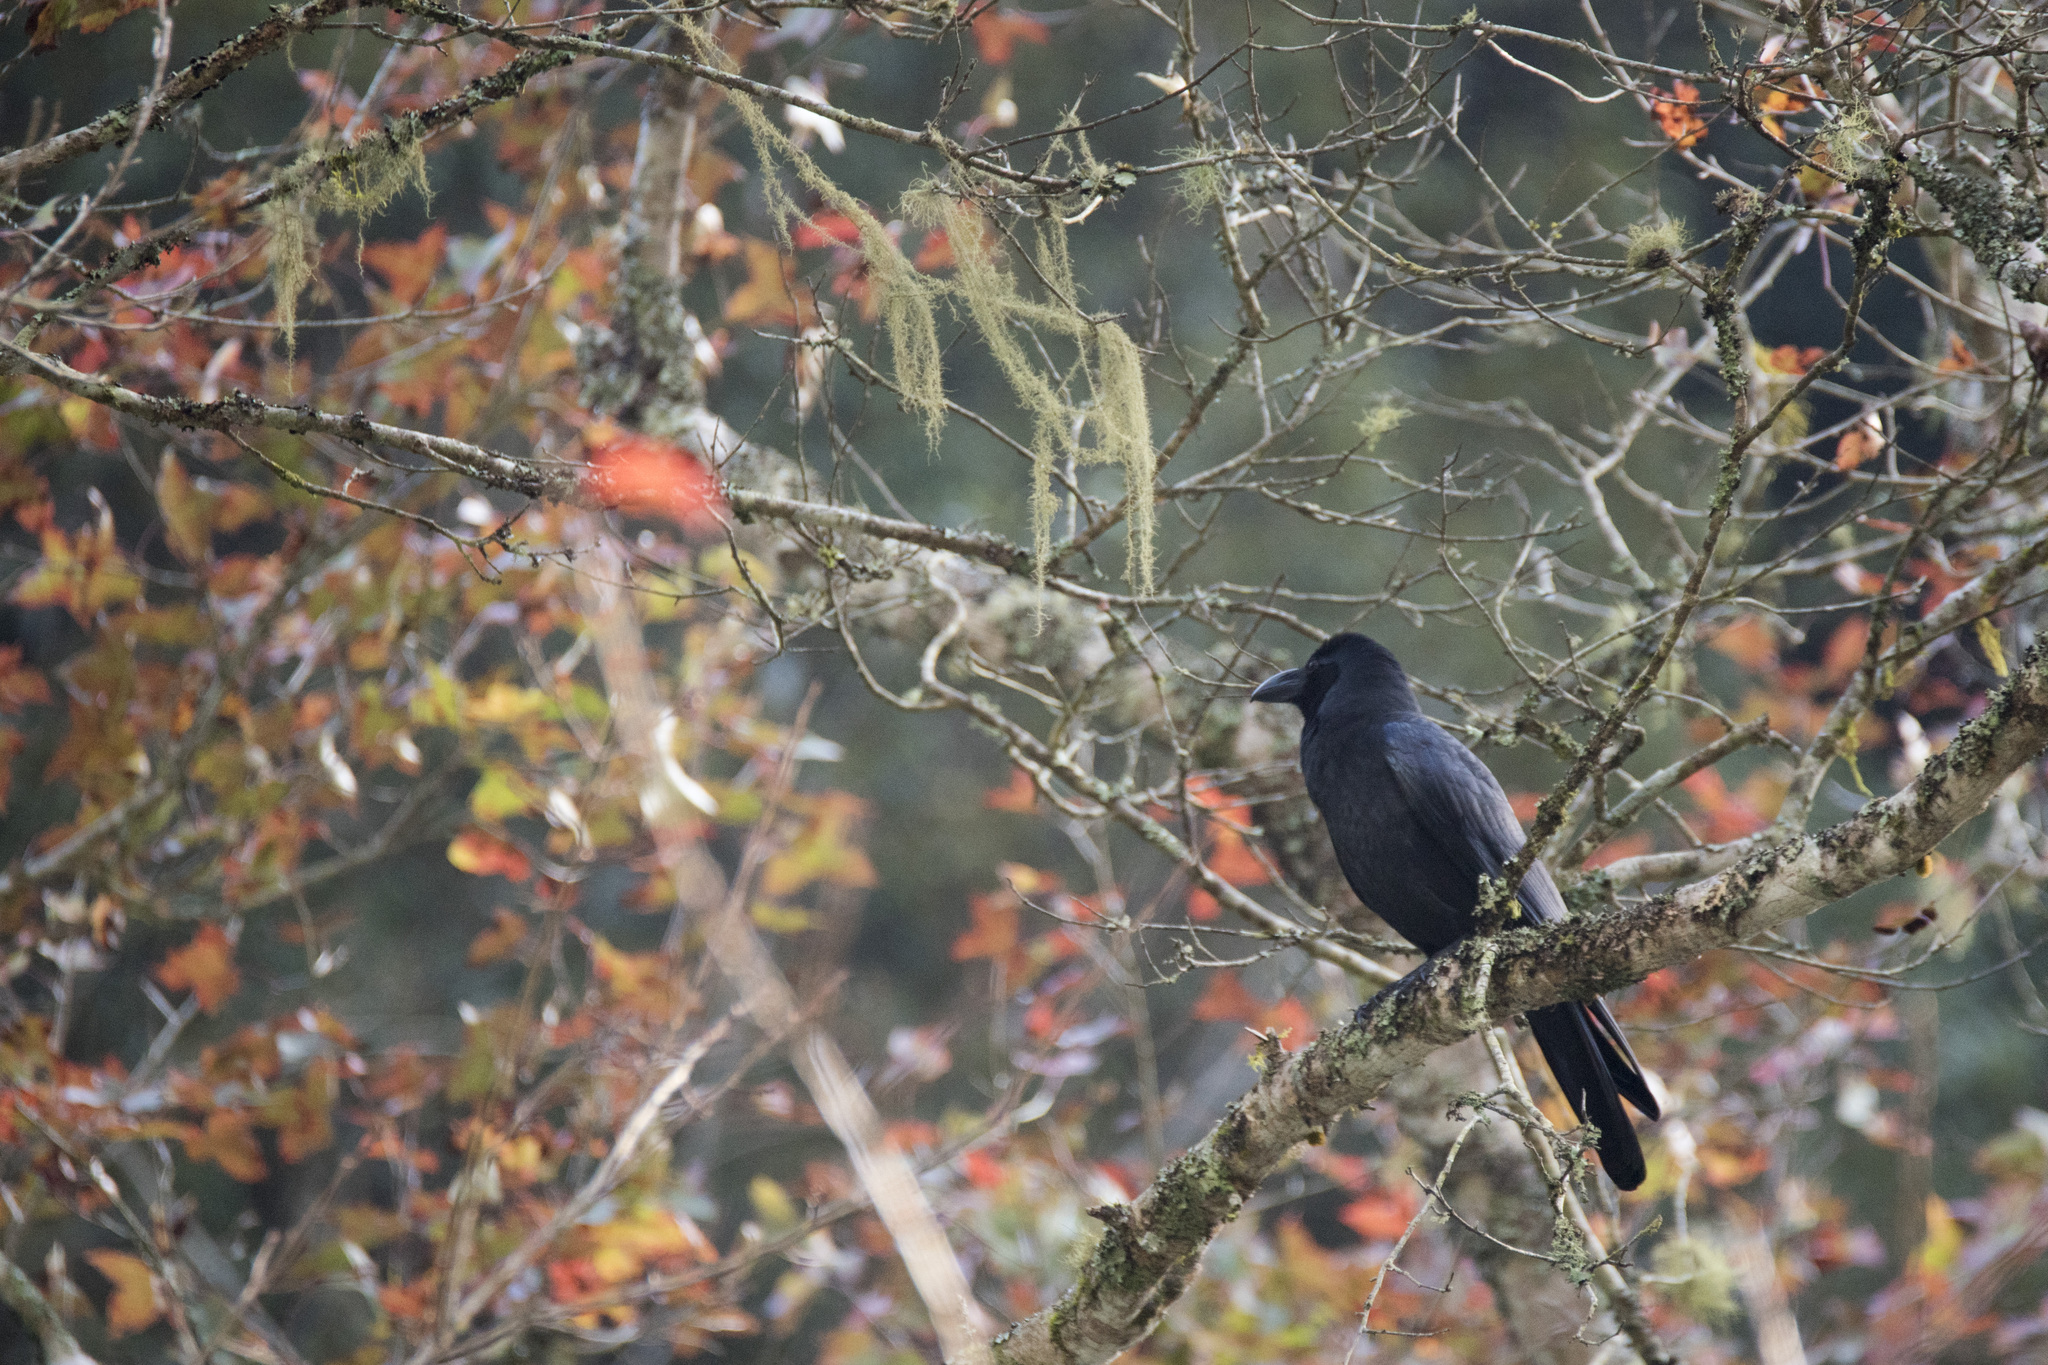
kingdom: Animalia
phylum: Chordata
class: Aves
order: Passeriformes
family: Corvidae
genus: Corvus
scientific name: Corvus macrorhynchos
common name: Large-billed crow
